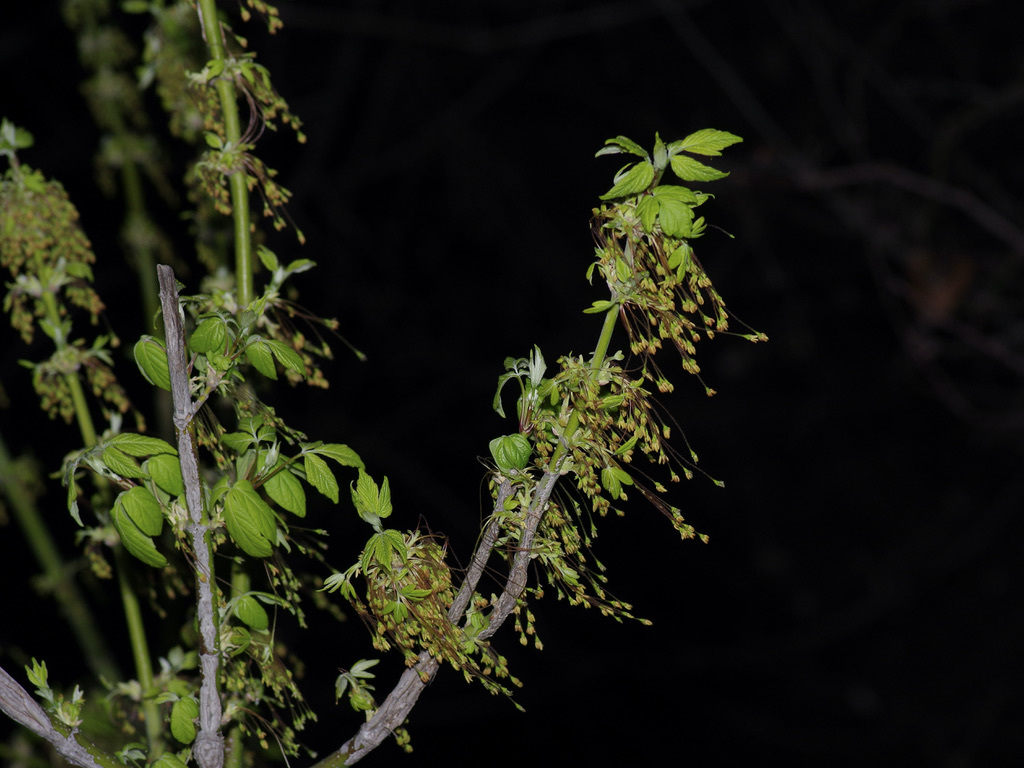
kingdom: Plantae
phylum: Tracheophyta
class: Magnoliopsida
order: Sapindales
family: Sapindaceae
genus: Acer
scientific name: Acer negundo
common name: Ashleaf maple
